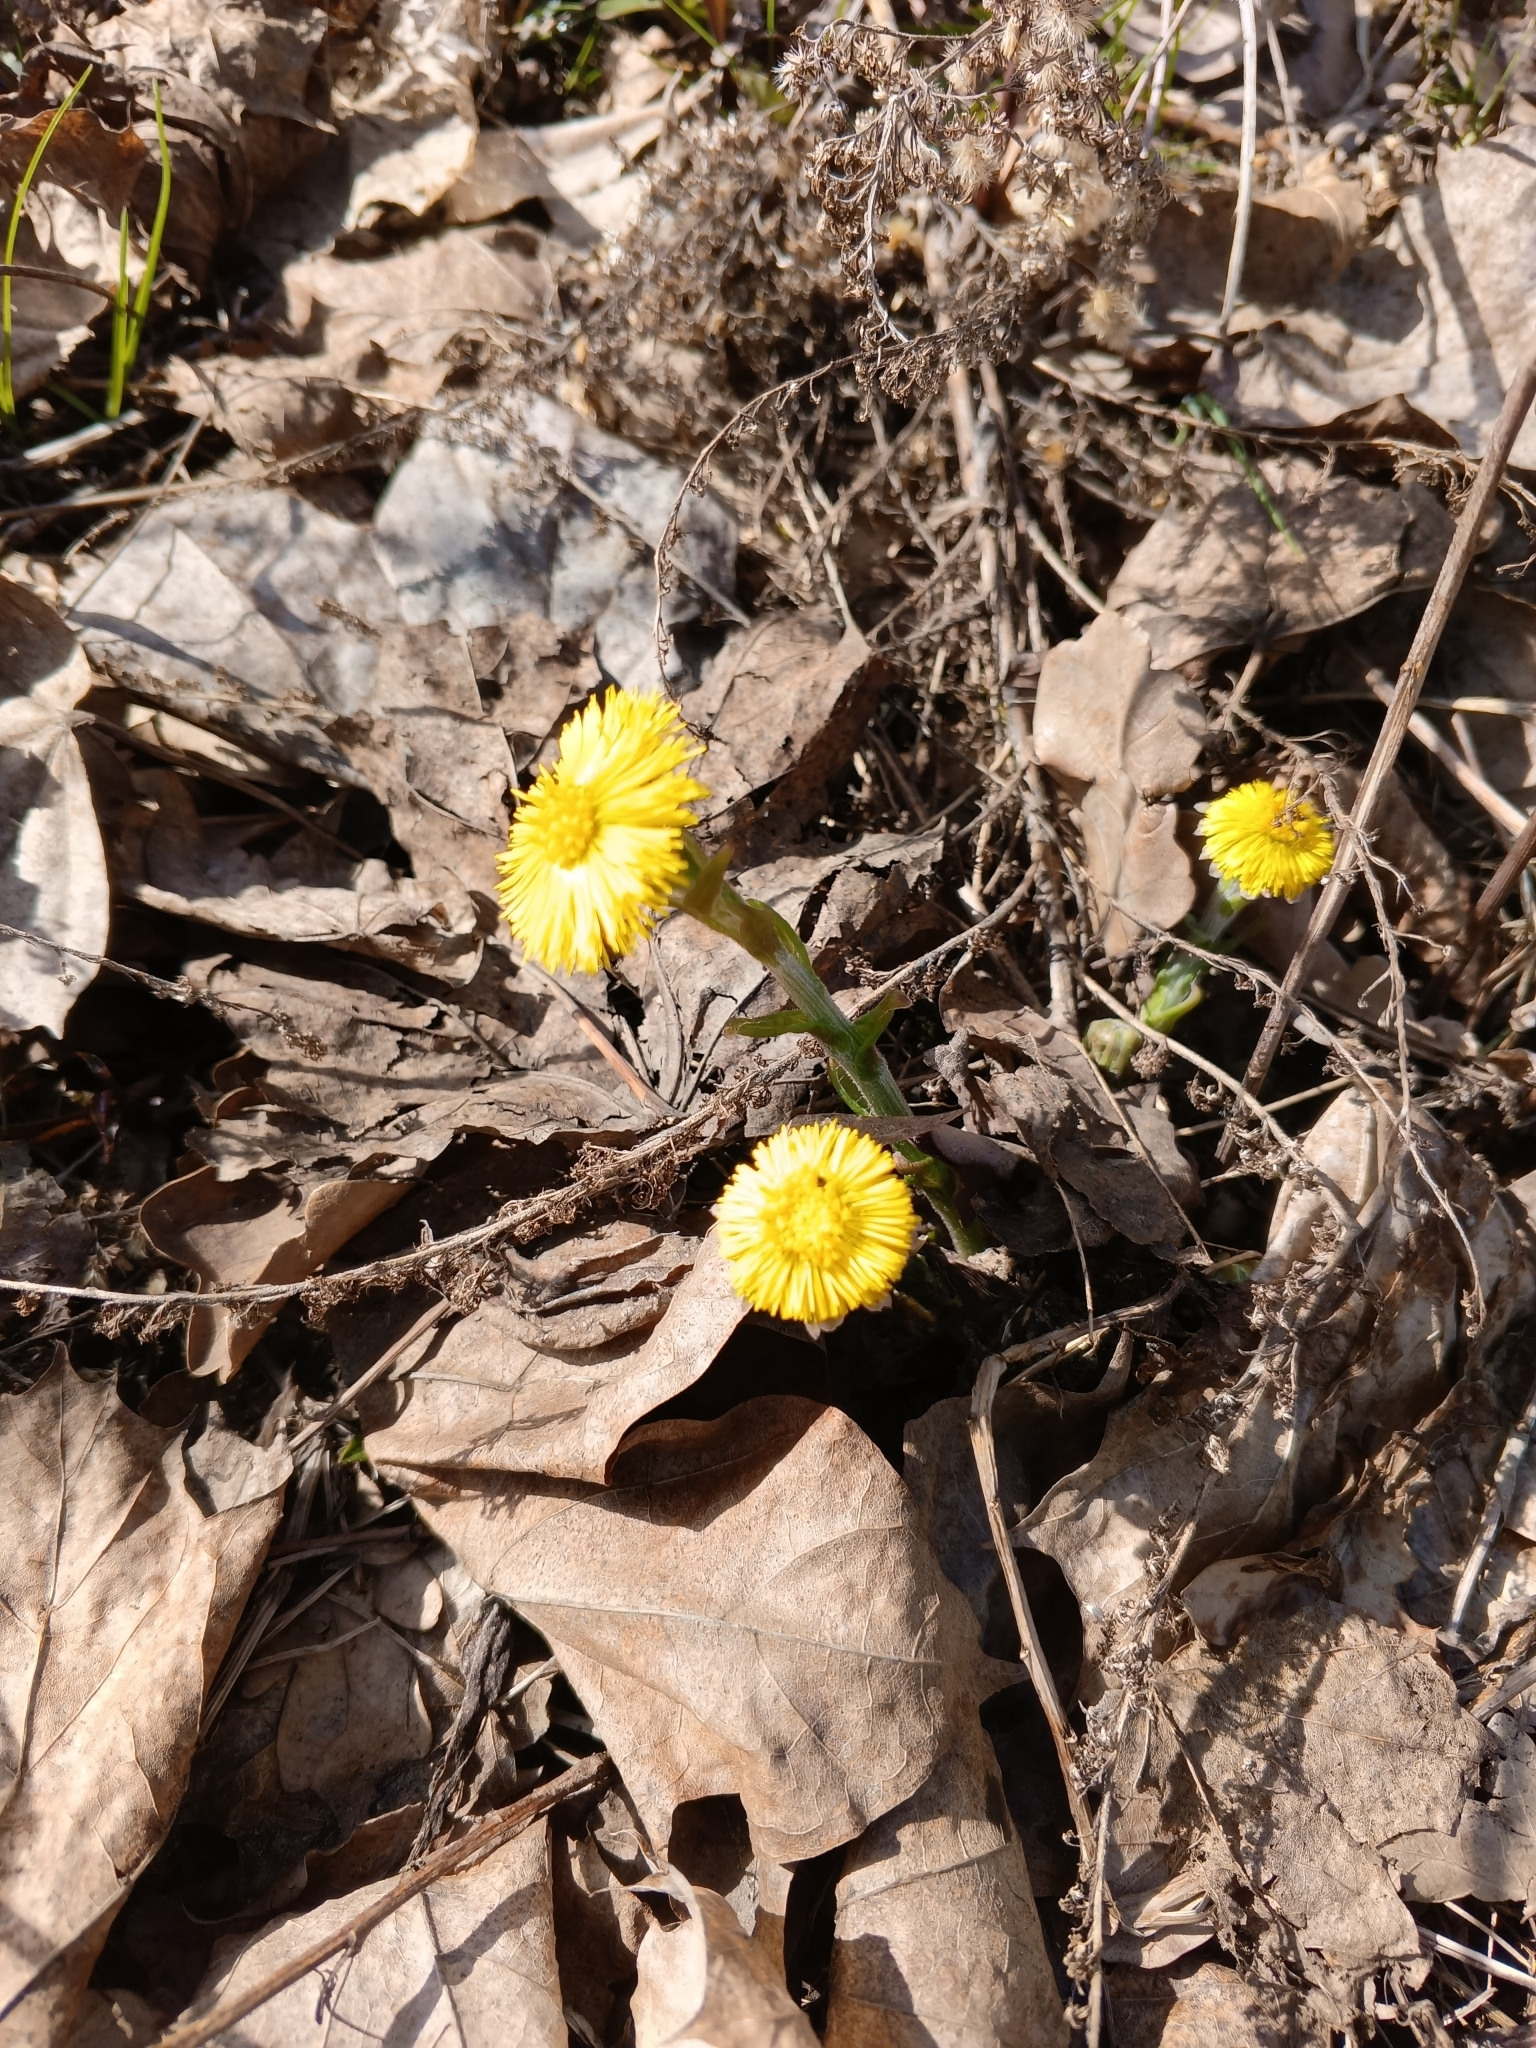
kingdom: Plantae
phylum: Tracheophyta
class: Magnoliopsida
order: Asterales
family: Asteraceae
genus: Tussilago
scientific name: Tussilago farfara
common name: Coltsfoot
